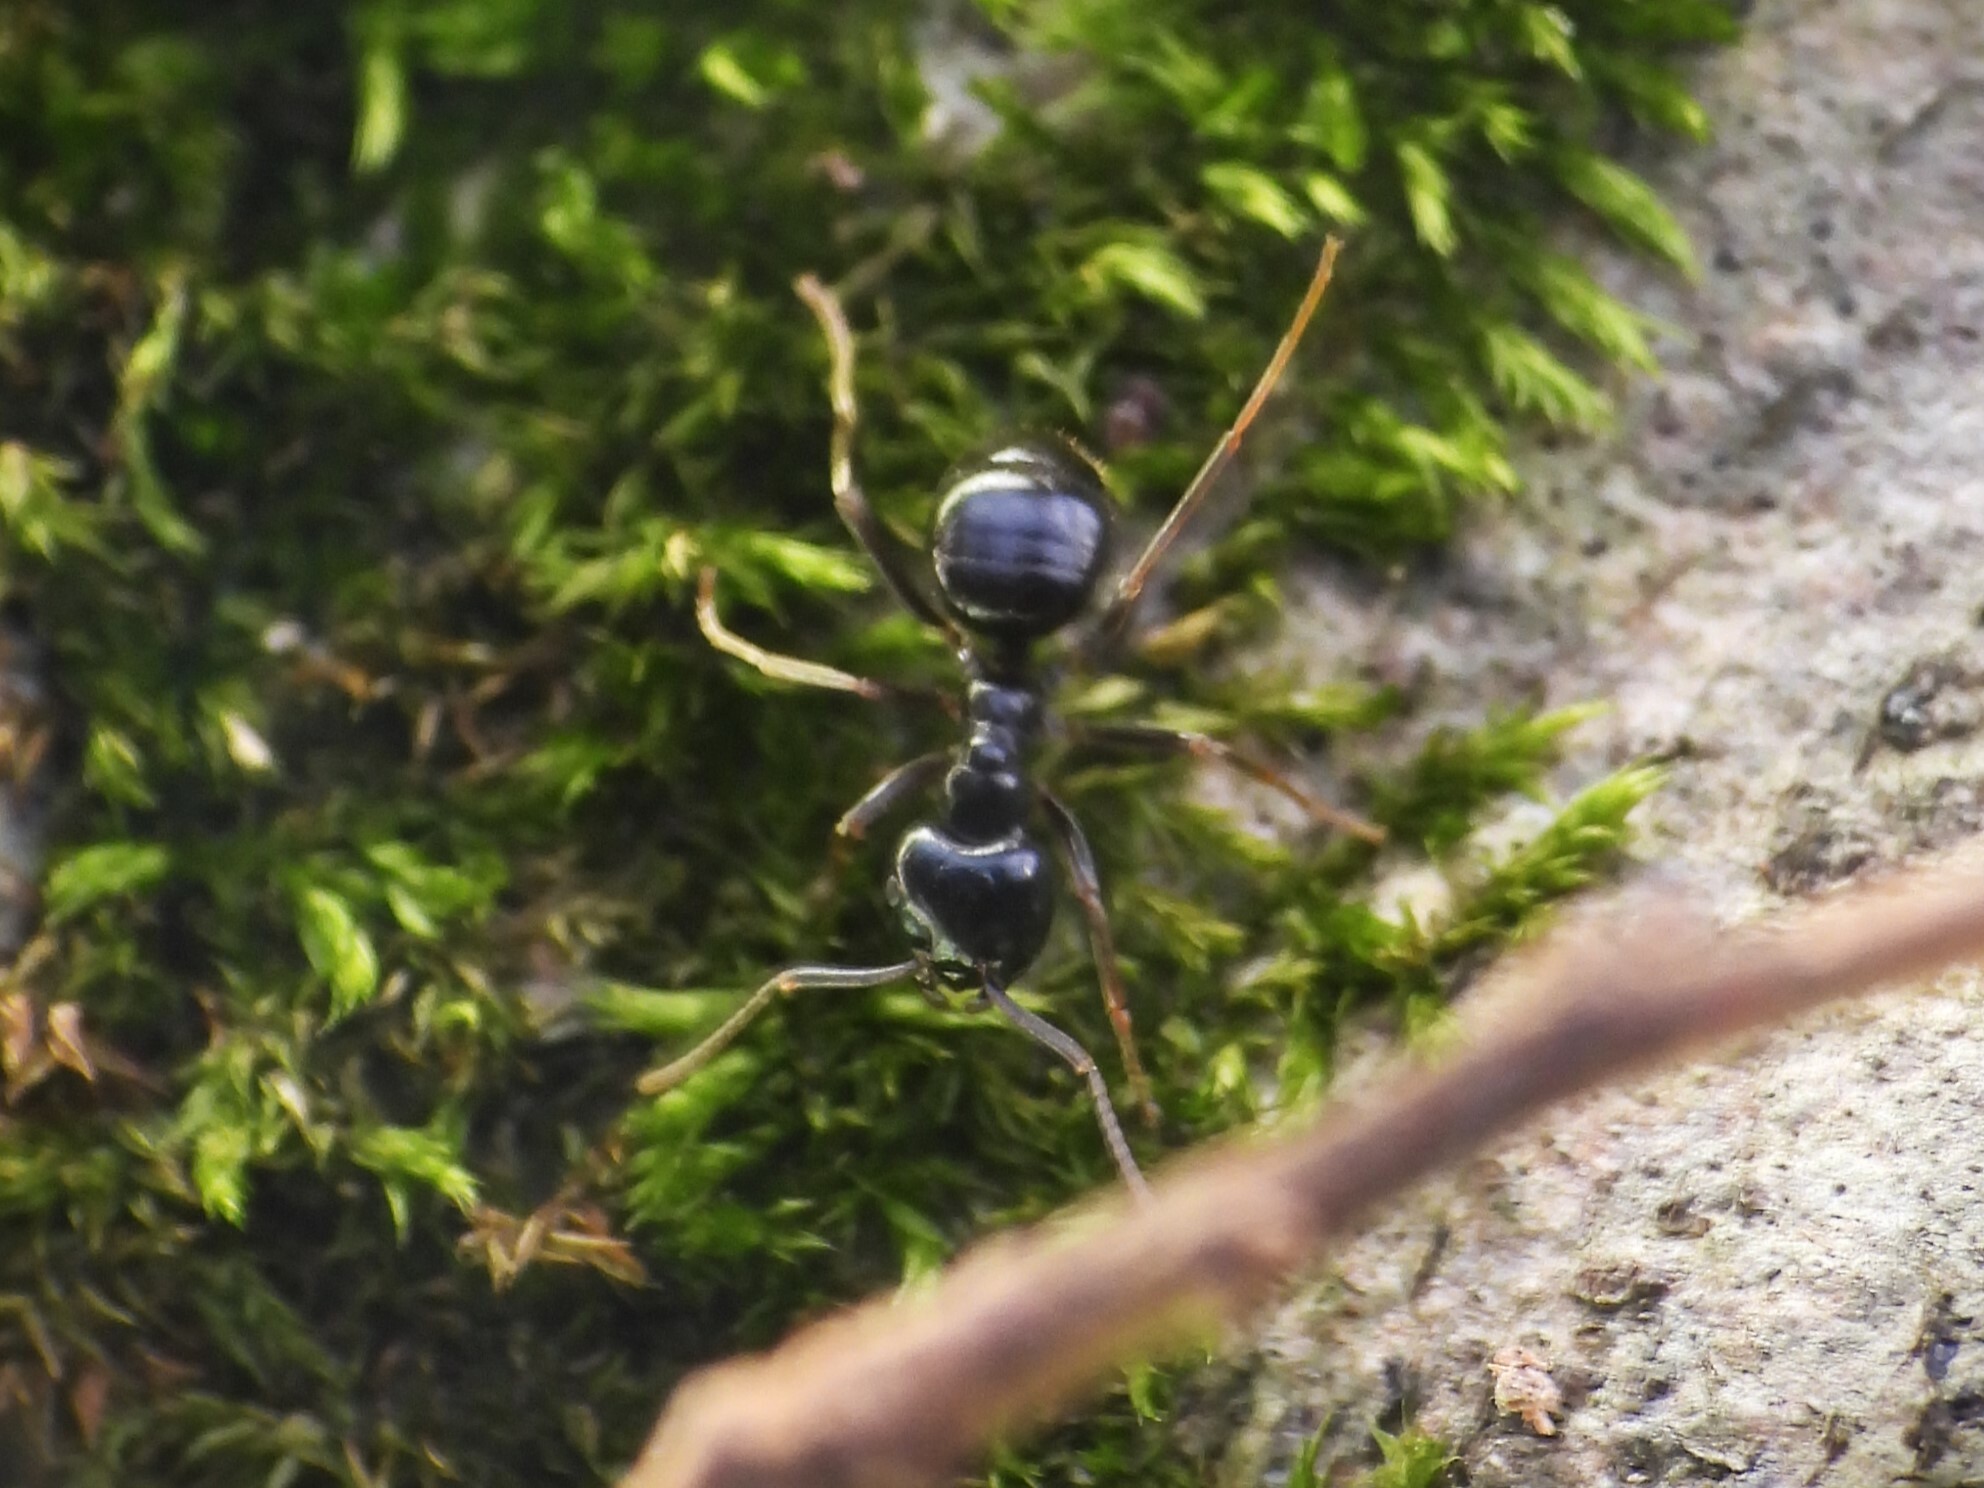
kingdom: Animalia
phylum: Arthropoda
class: Insecta
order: Hymenoptera
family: Formicidae
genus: Lasius
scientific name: Lasius fuliginosus
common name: Jet ant
